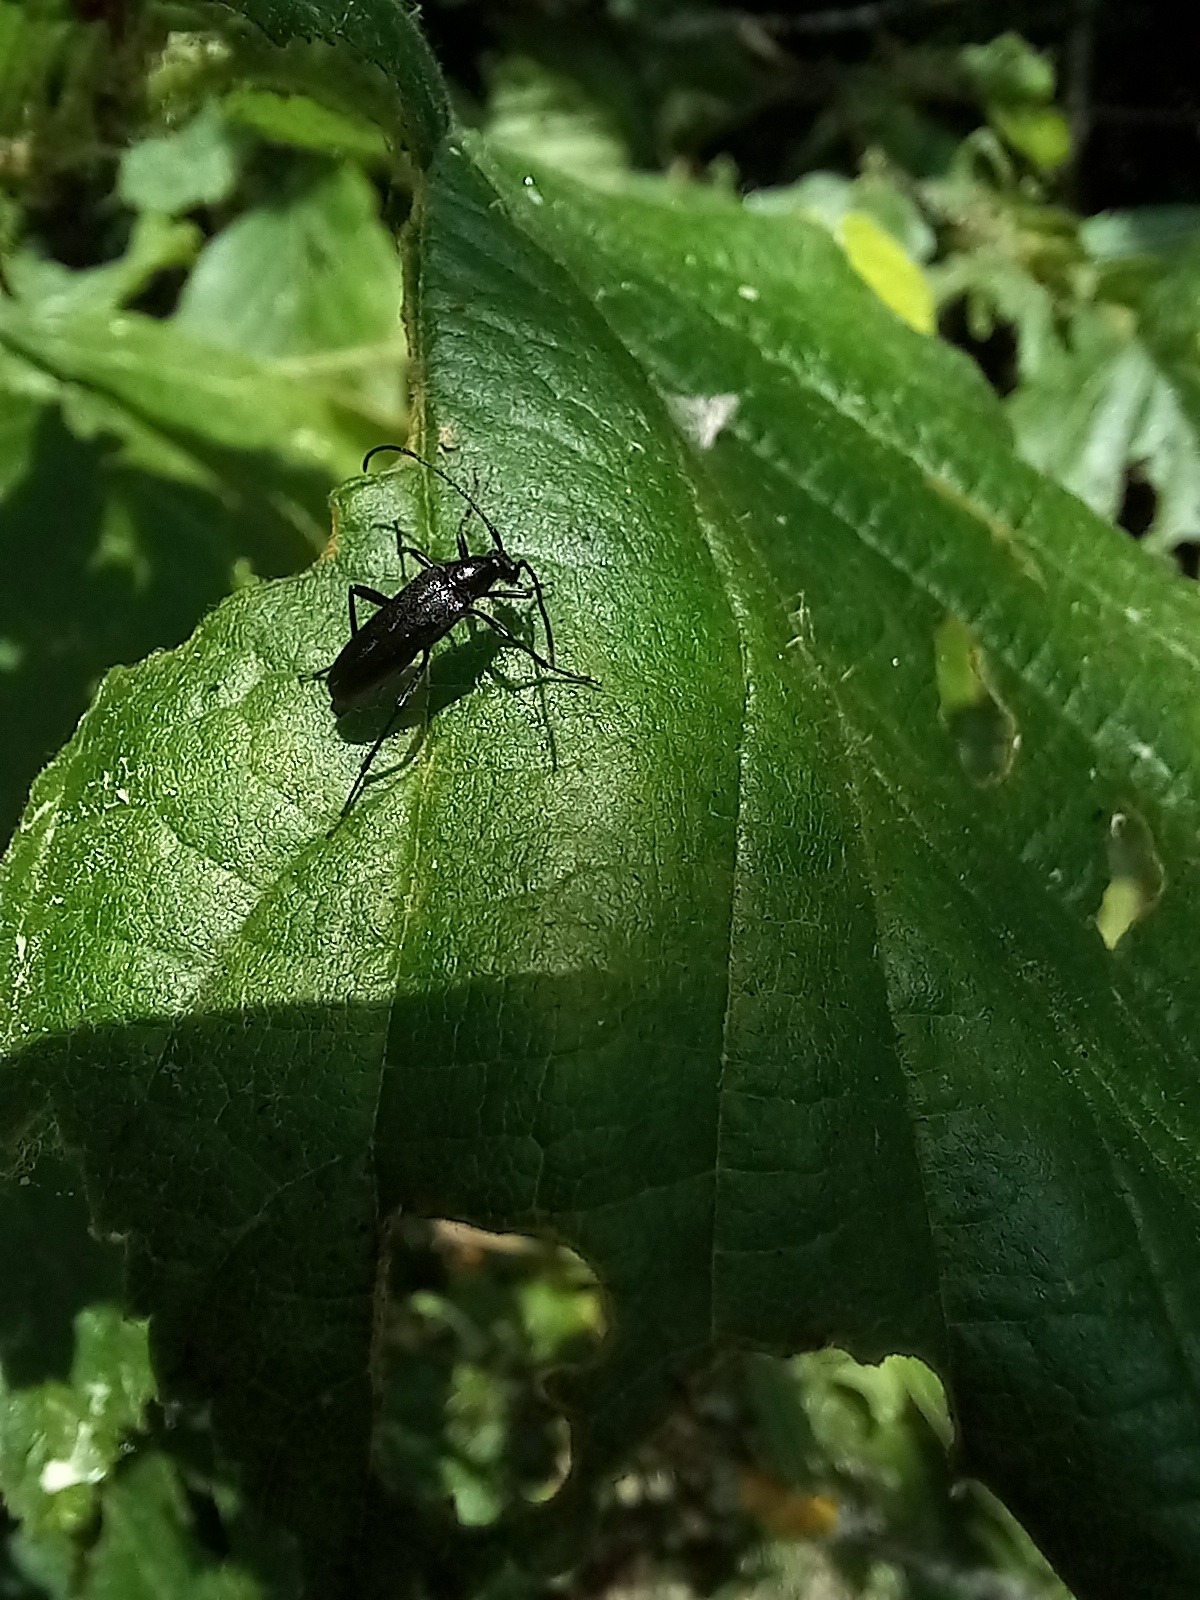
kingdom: Animalia
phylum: Arthropoda
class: Insecta
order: Coleoptera
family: Cerambycidae
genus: Stenurella
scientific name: Stenurella nigra
